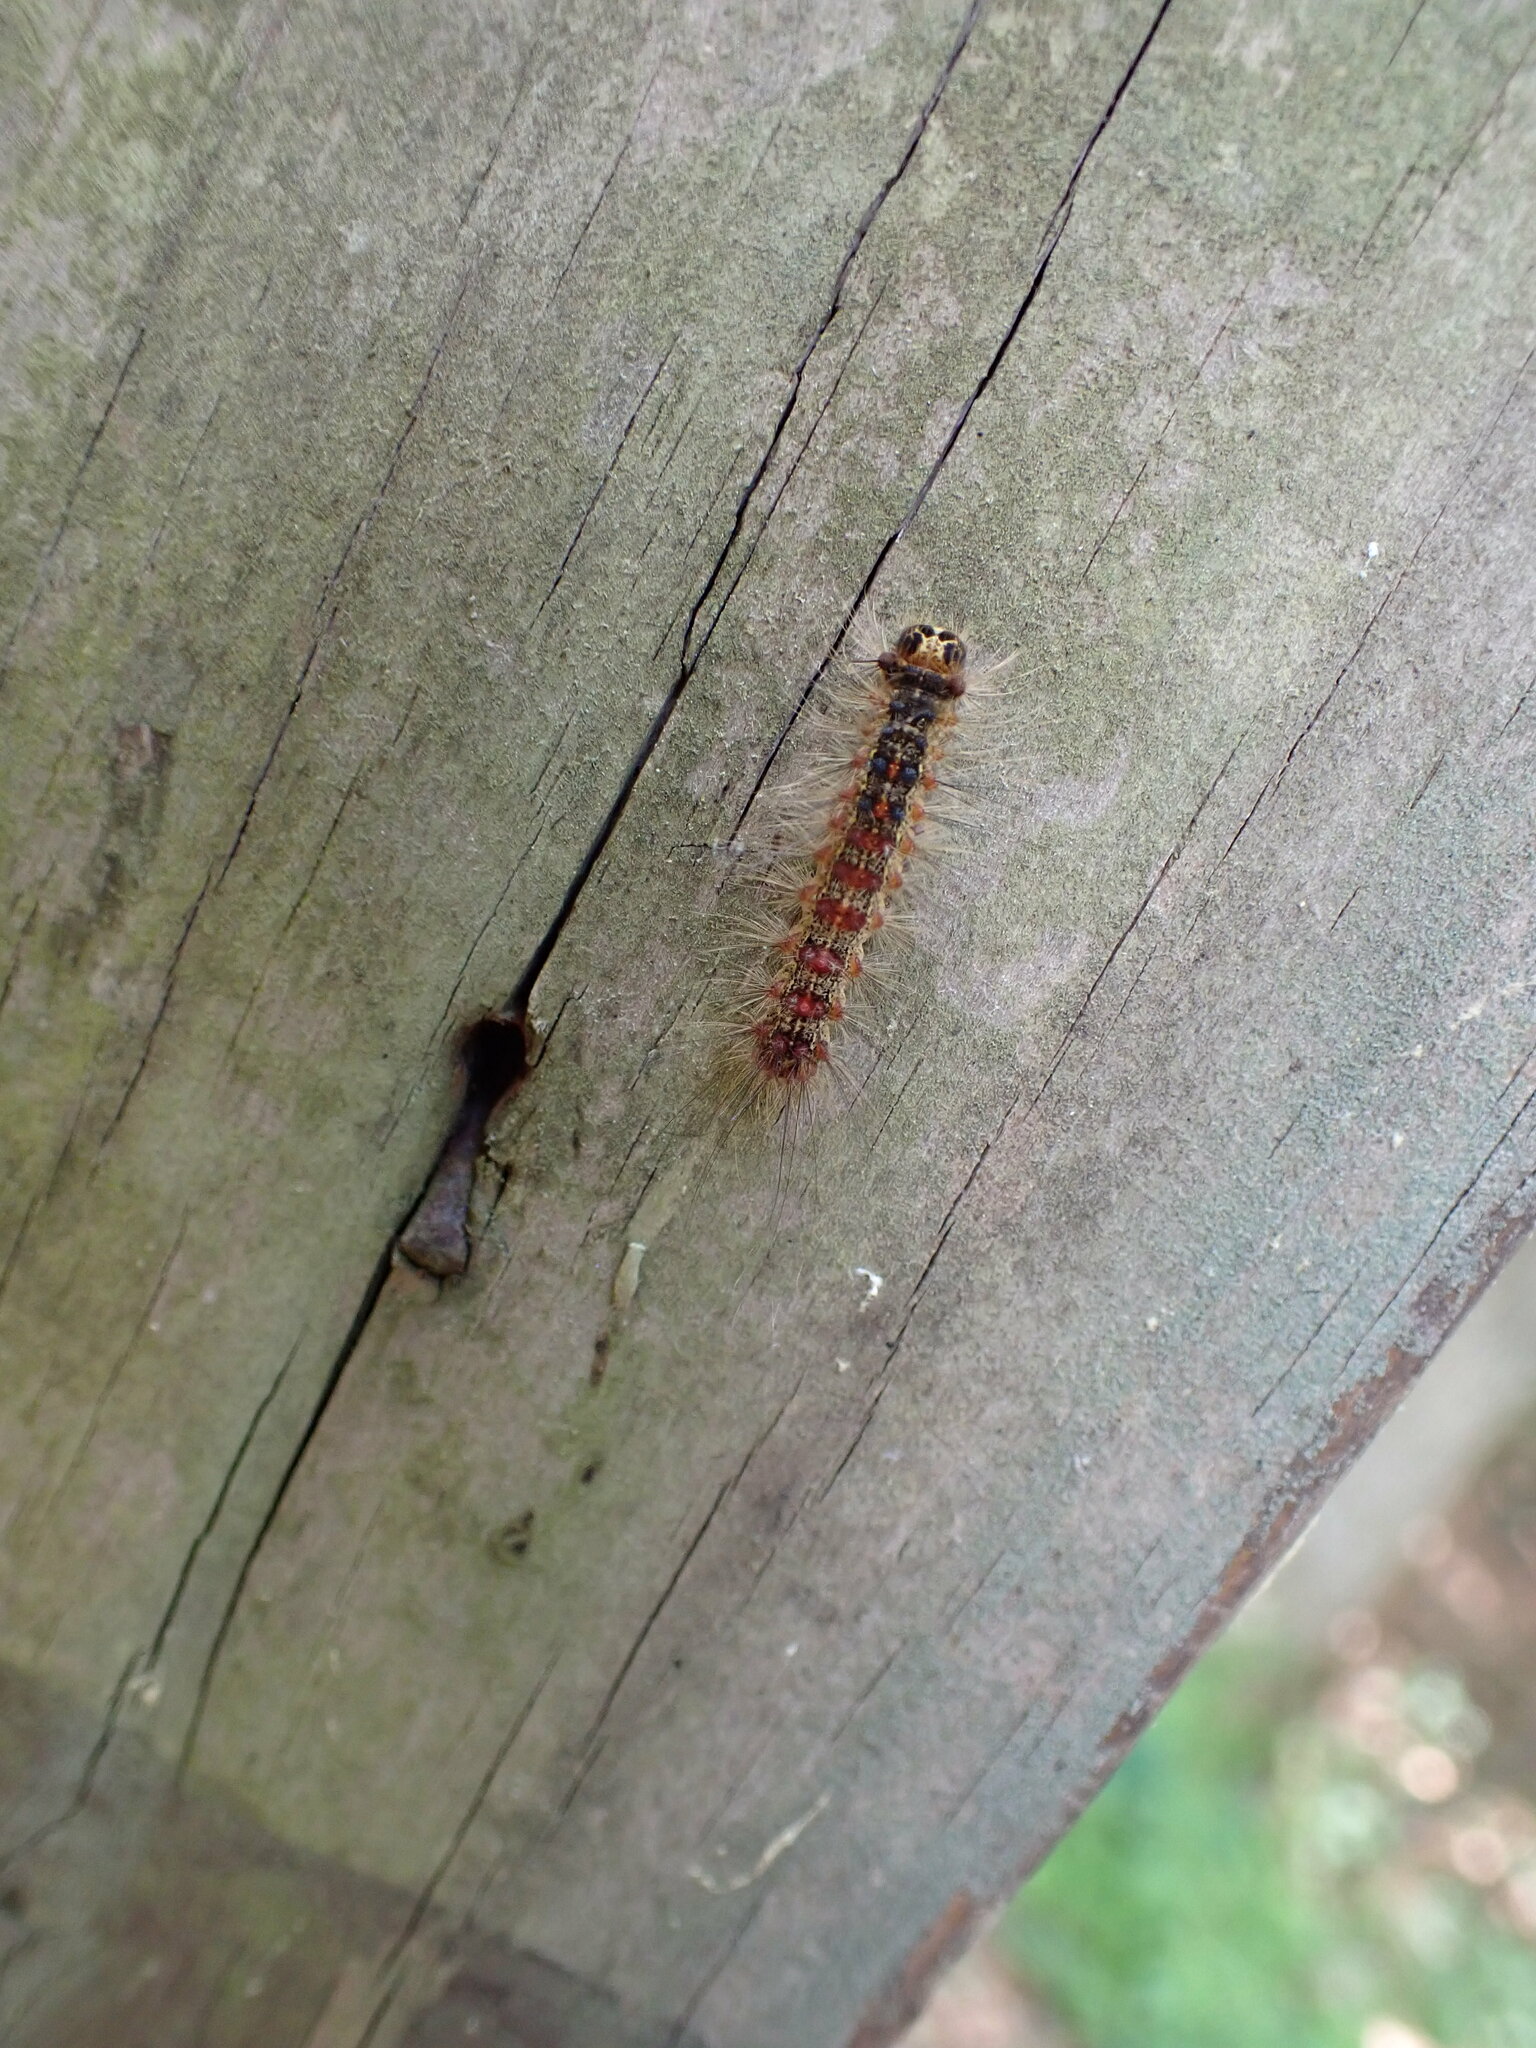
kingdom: Animalia
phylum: Arthropoda
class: Insecta
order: Lepidoptera
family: Erebidae
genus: Lymantria
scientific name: Lymantria dispar
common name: Gypsy moth
